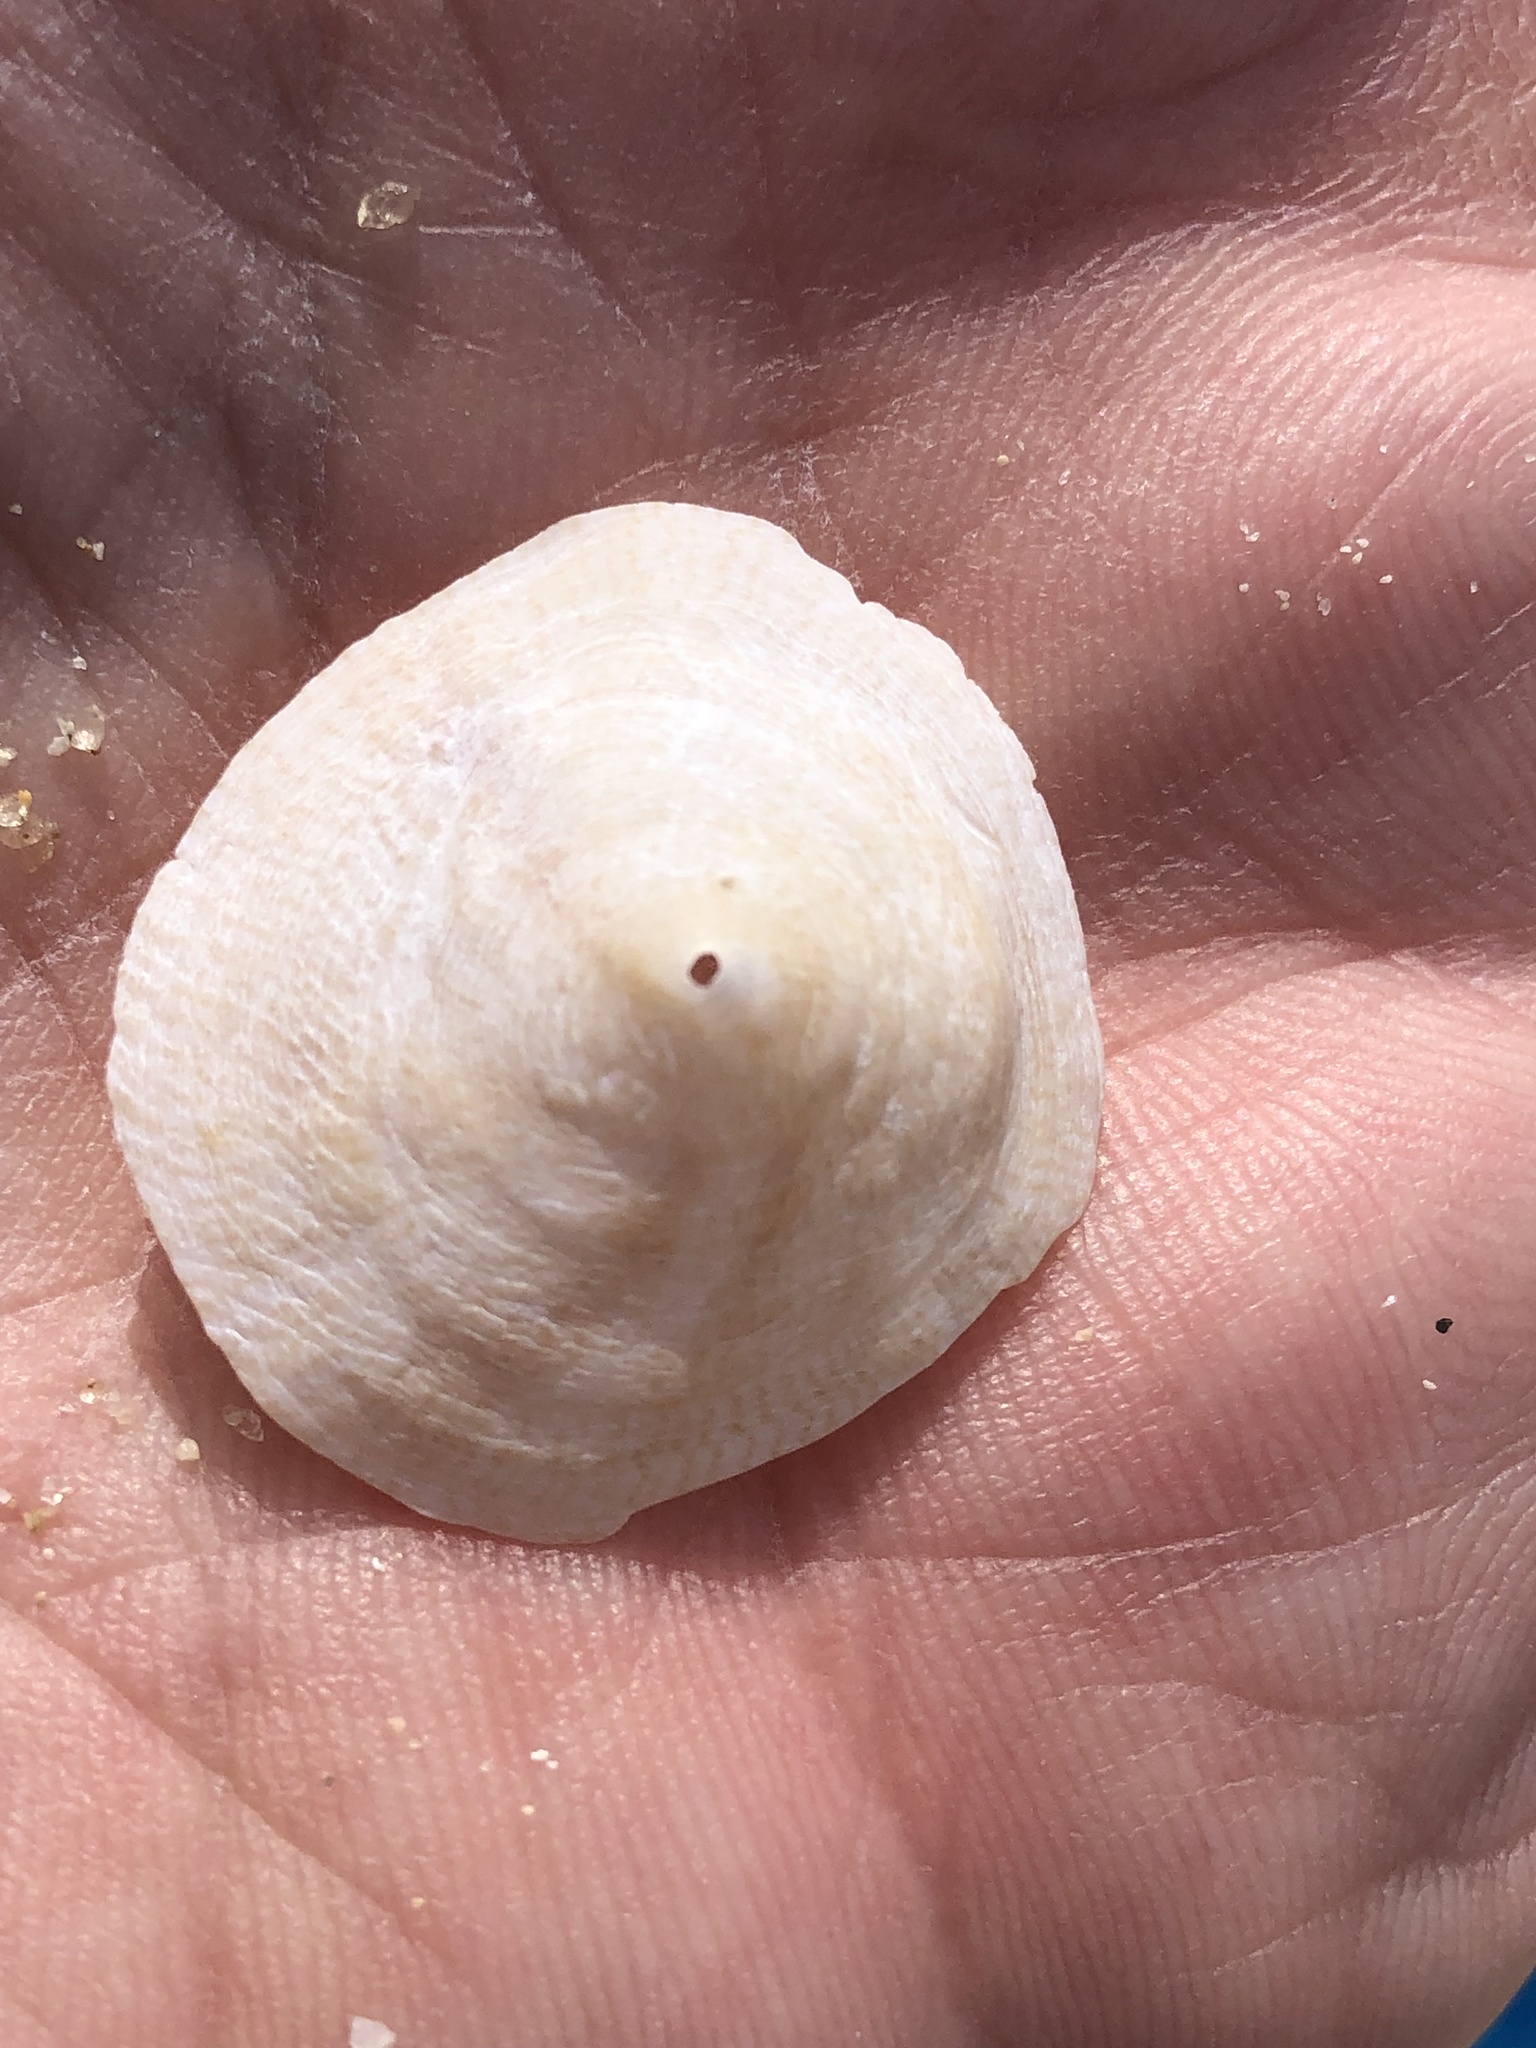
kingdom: Animalia
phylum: Mollusca
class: Gastropoda
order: Littorinimorpha
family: Calyptraeidae
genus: Desmaulus
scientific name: Desmaulus extinctorium
